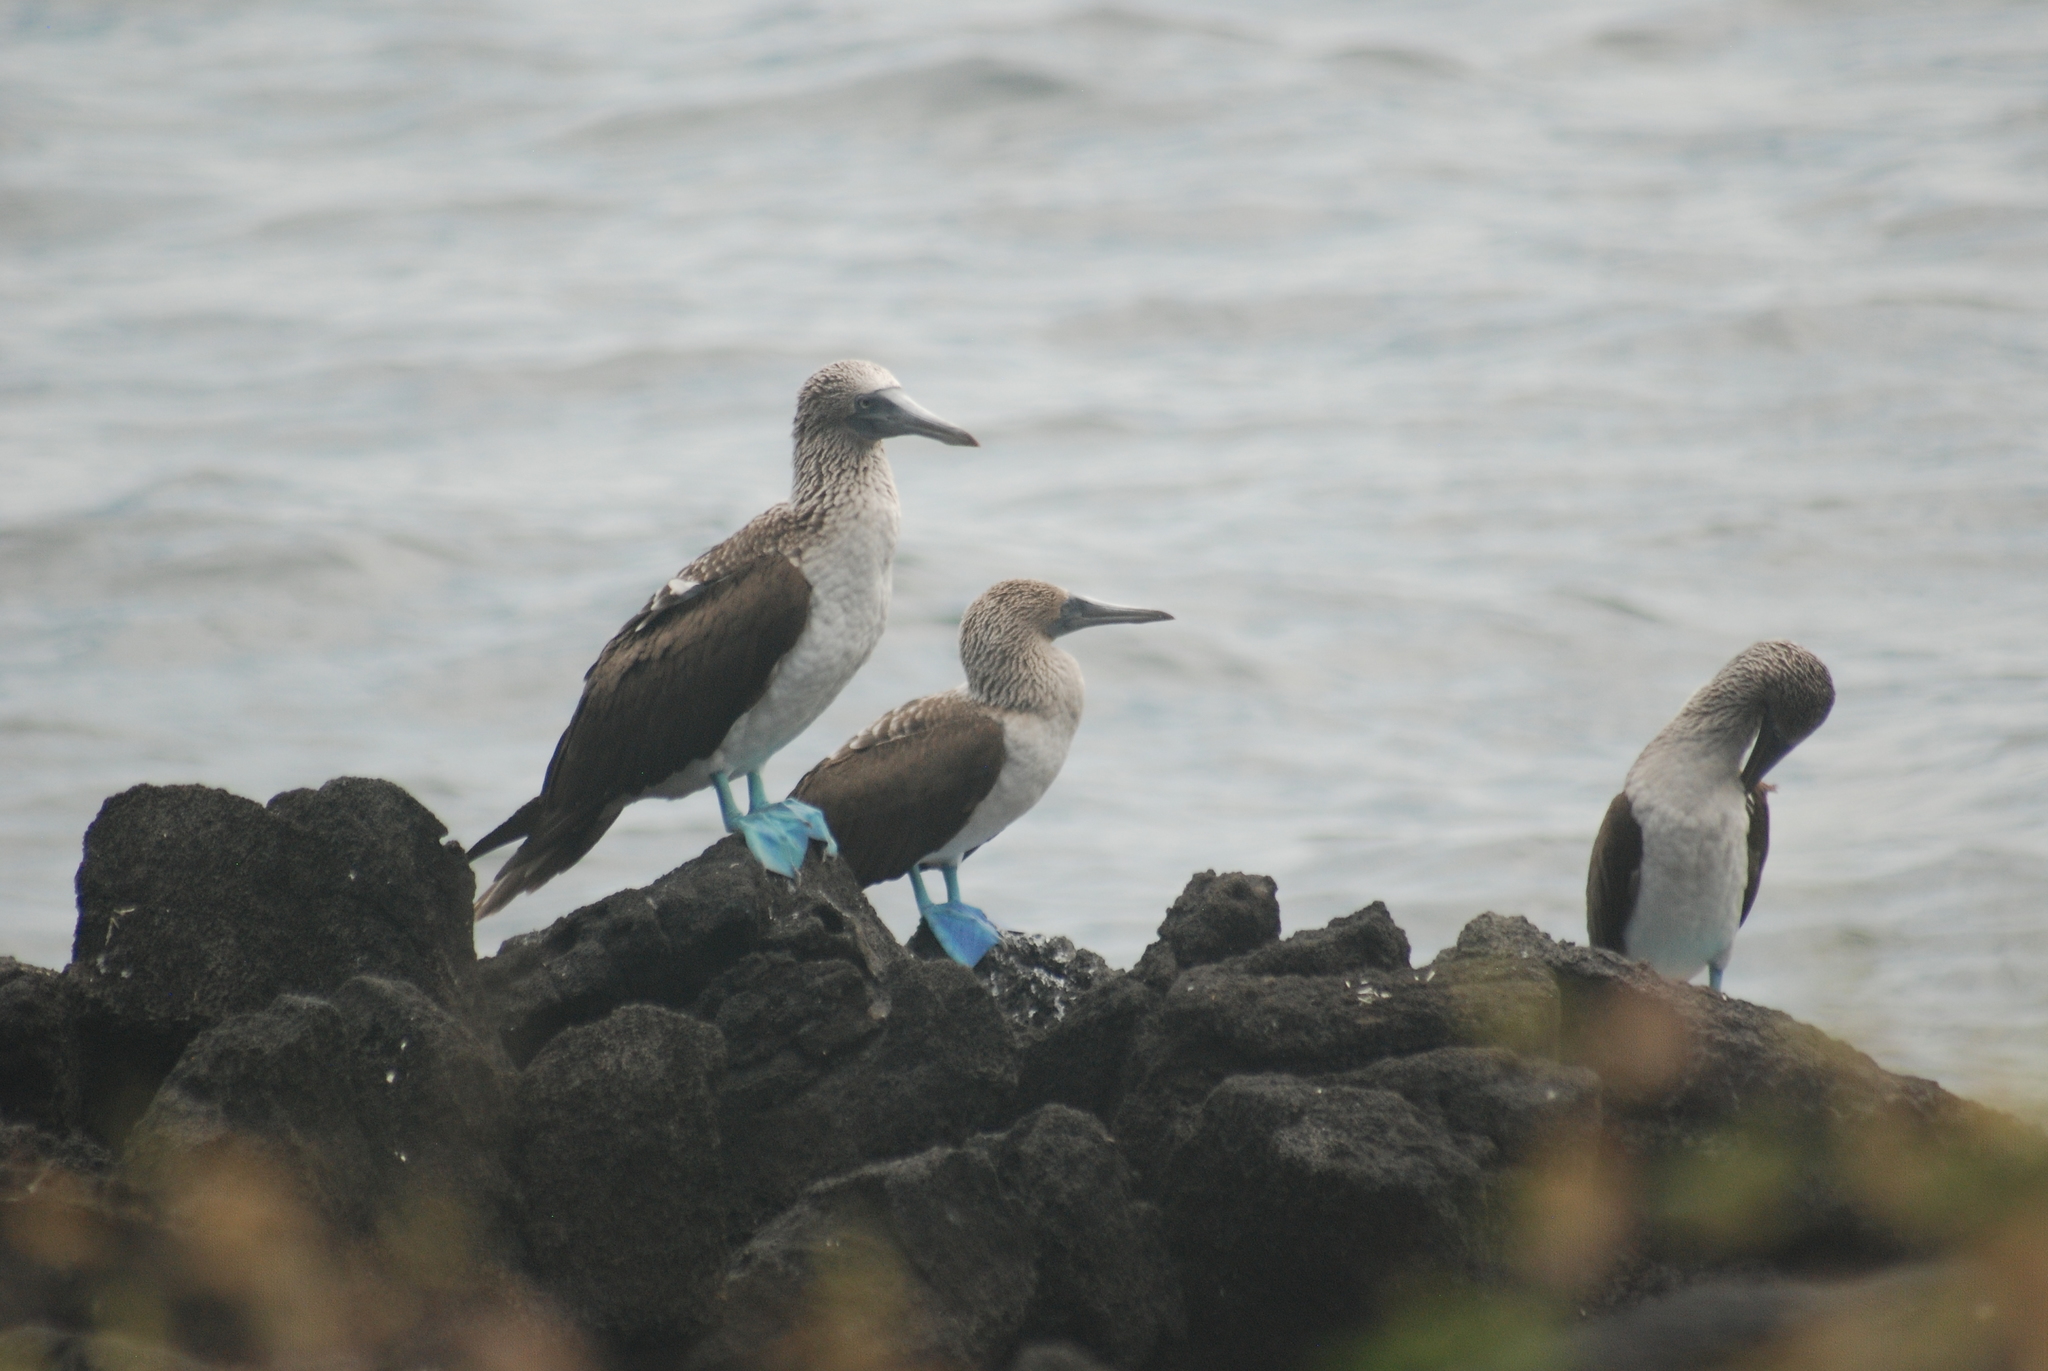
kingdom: Animalia
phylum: Chordata
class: Aves
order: Suliformes
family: Sulidae
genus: Sula
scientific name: Sula nebouxii
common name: Blue-footed booby
